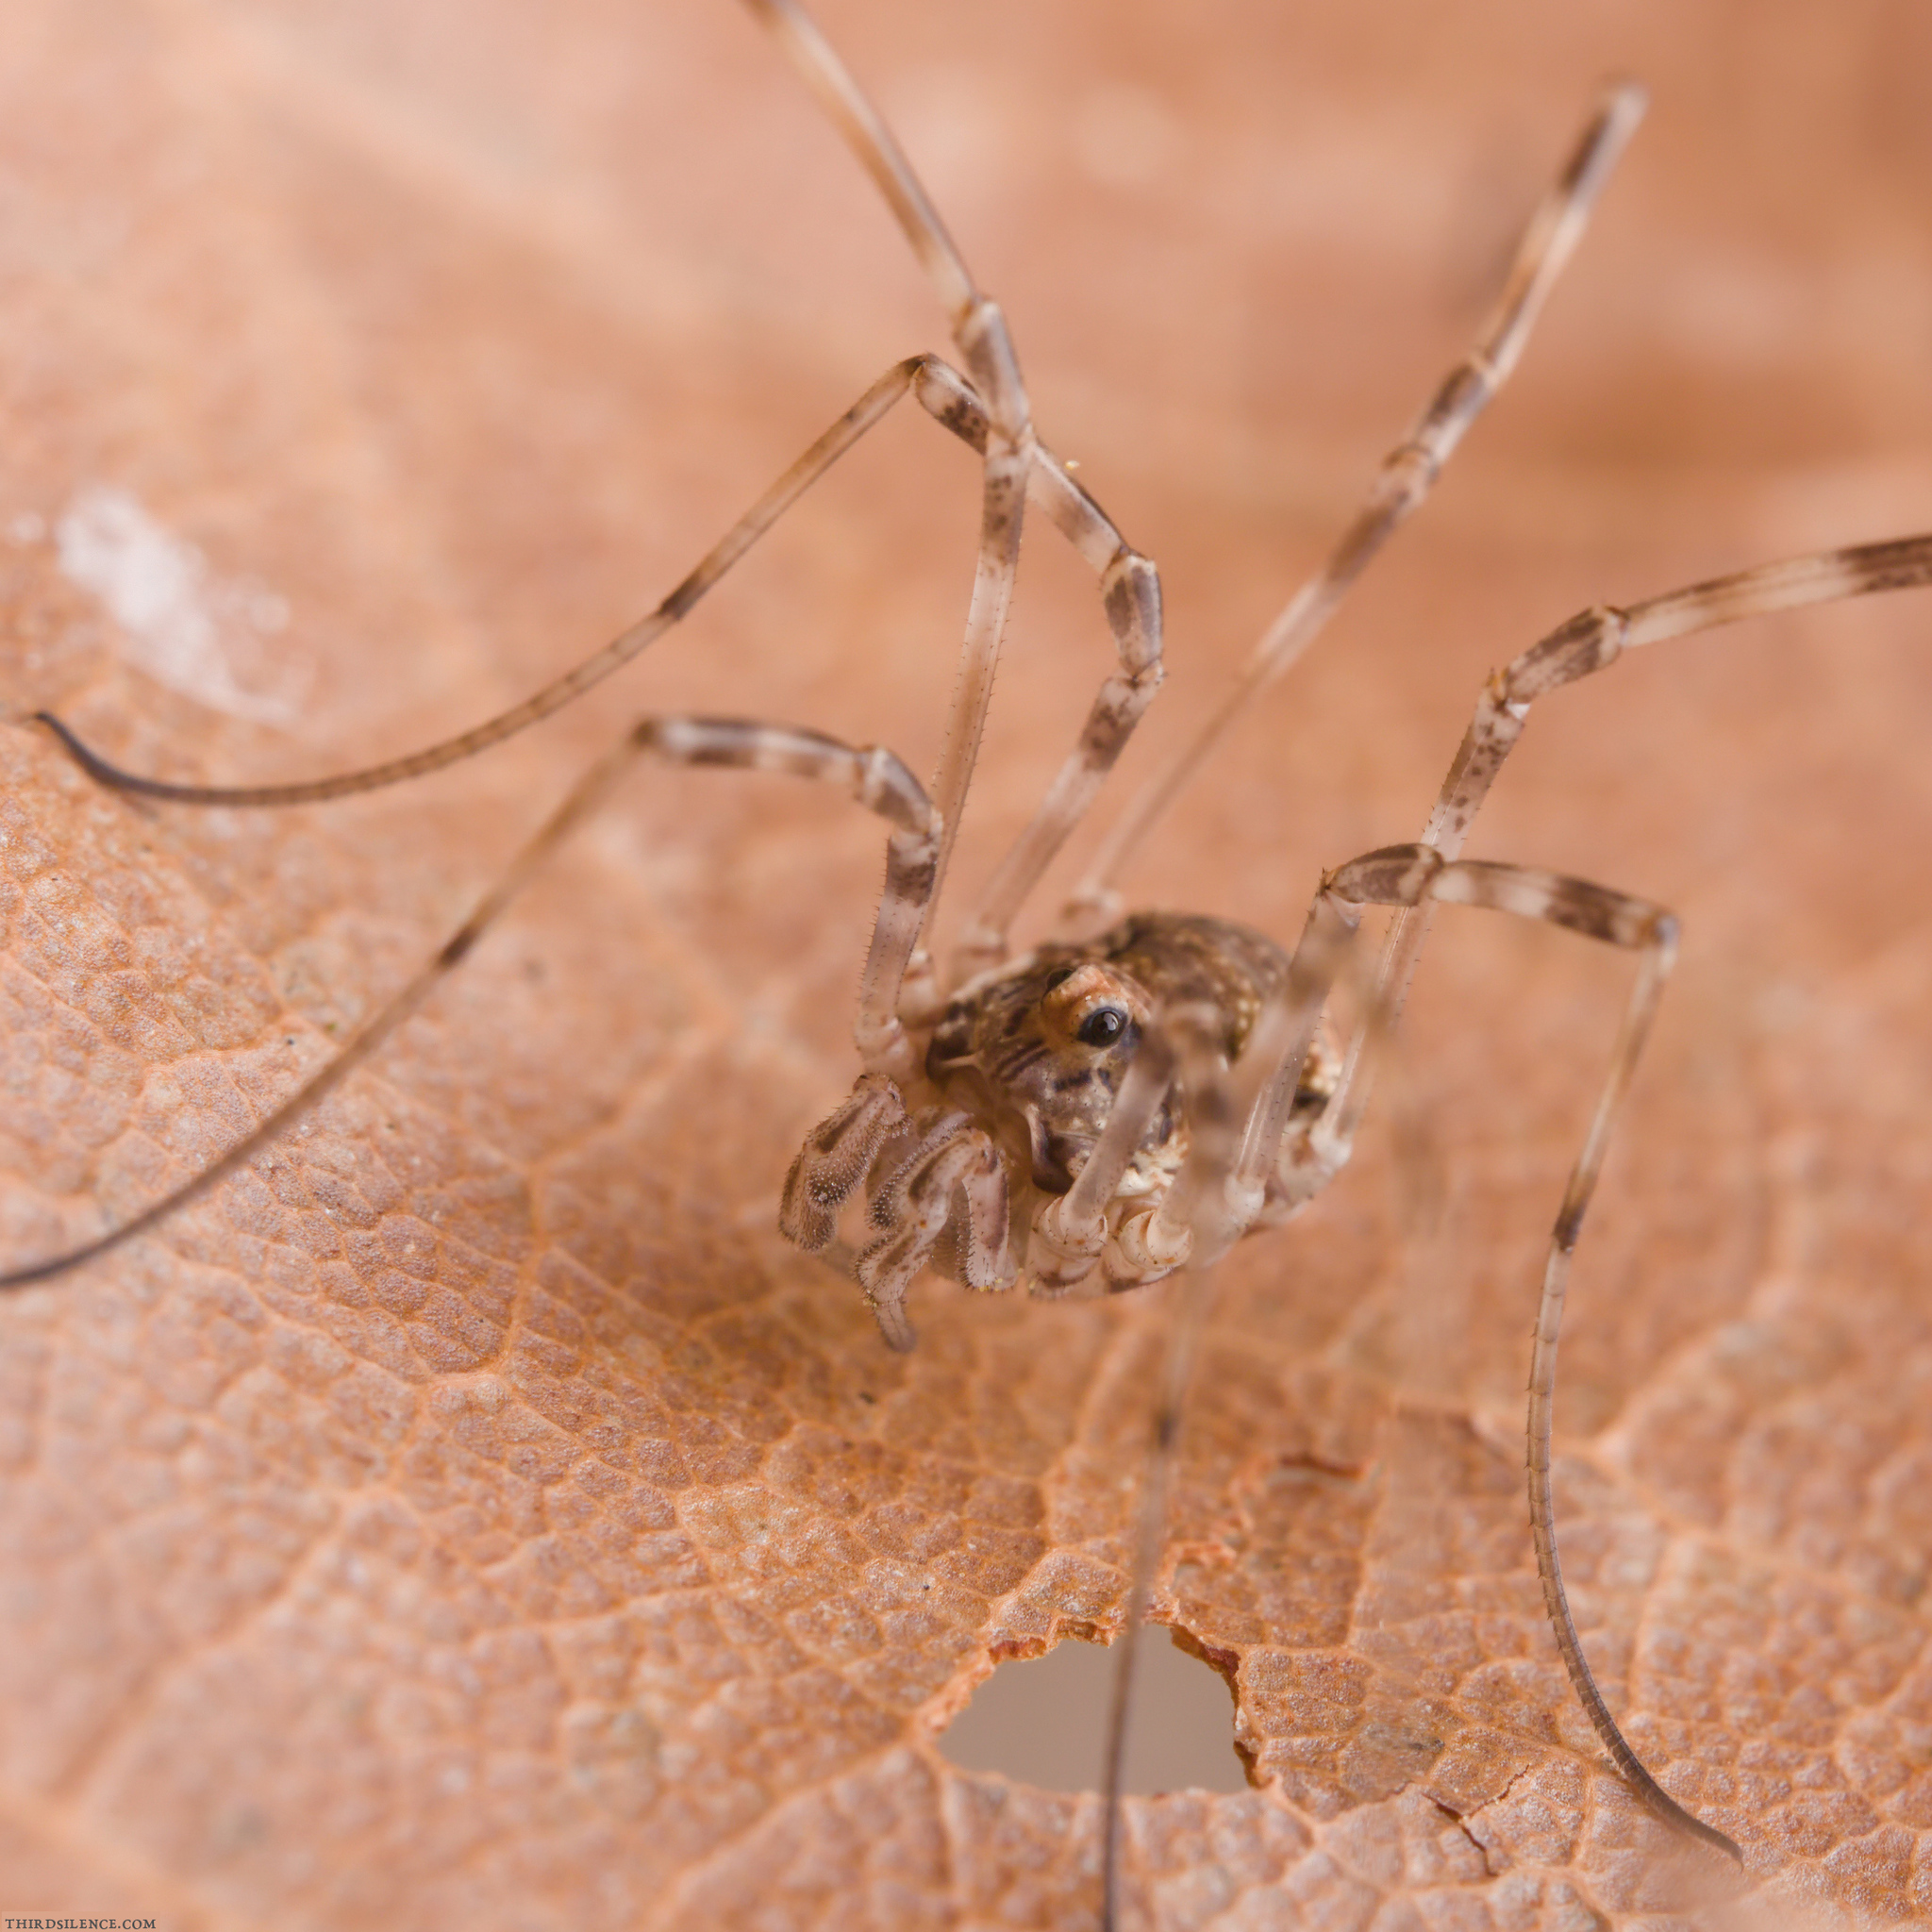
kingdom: Animalia
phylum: Arthropoda
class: Arachnida
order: Opiliones
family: Phalangiidae
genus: Dasylobus
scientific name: Dasylobus graniferus
